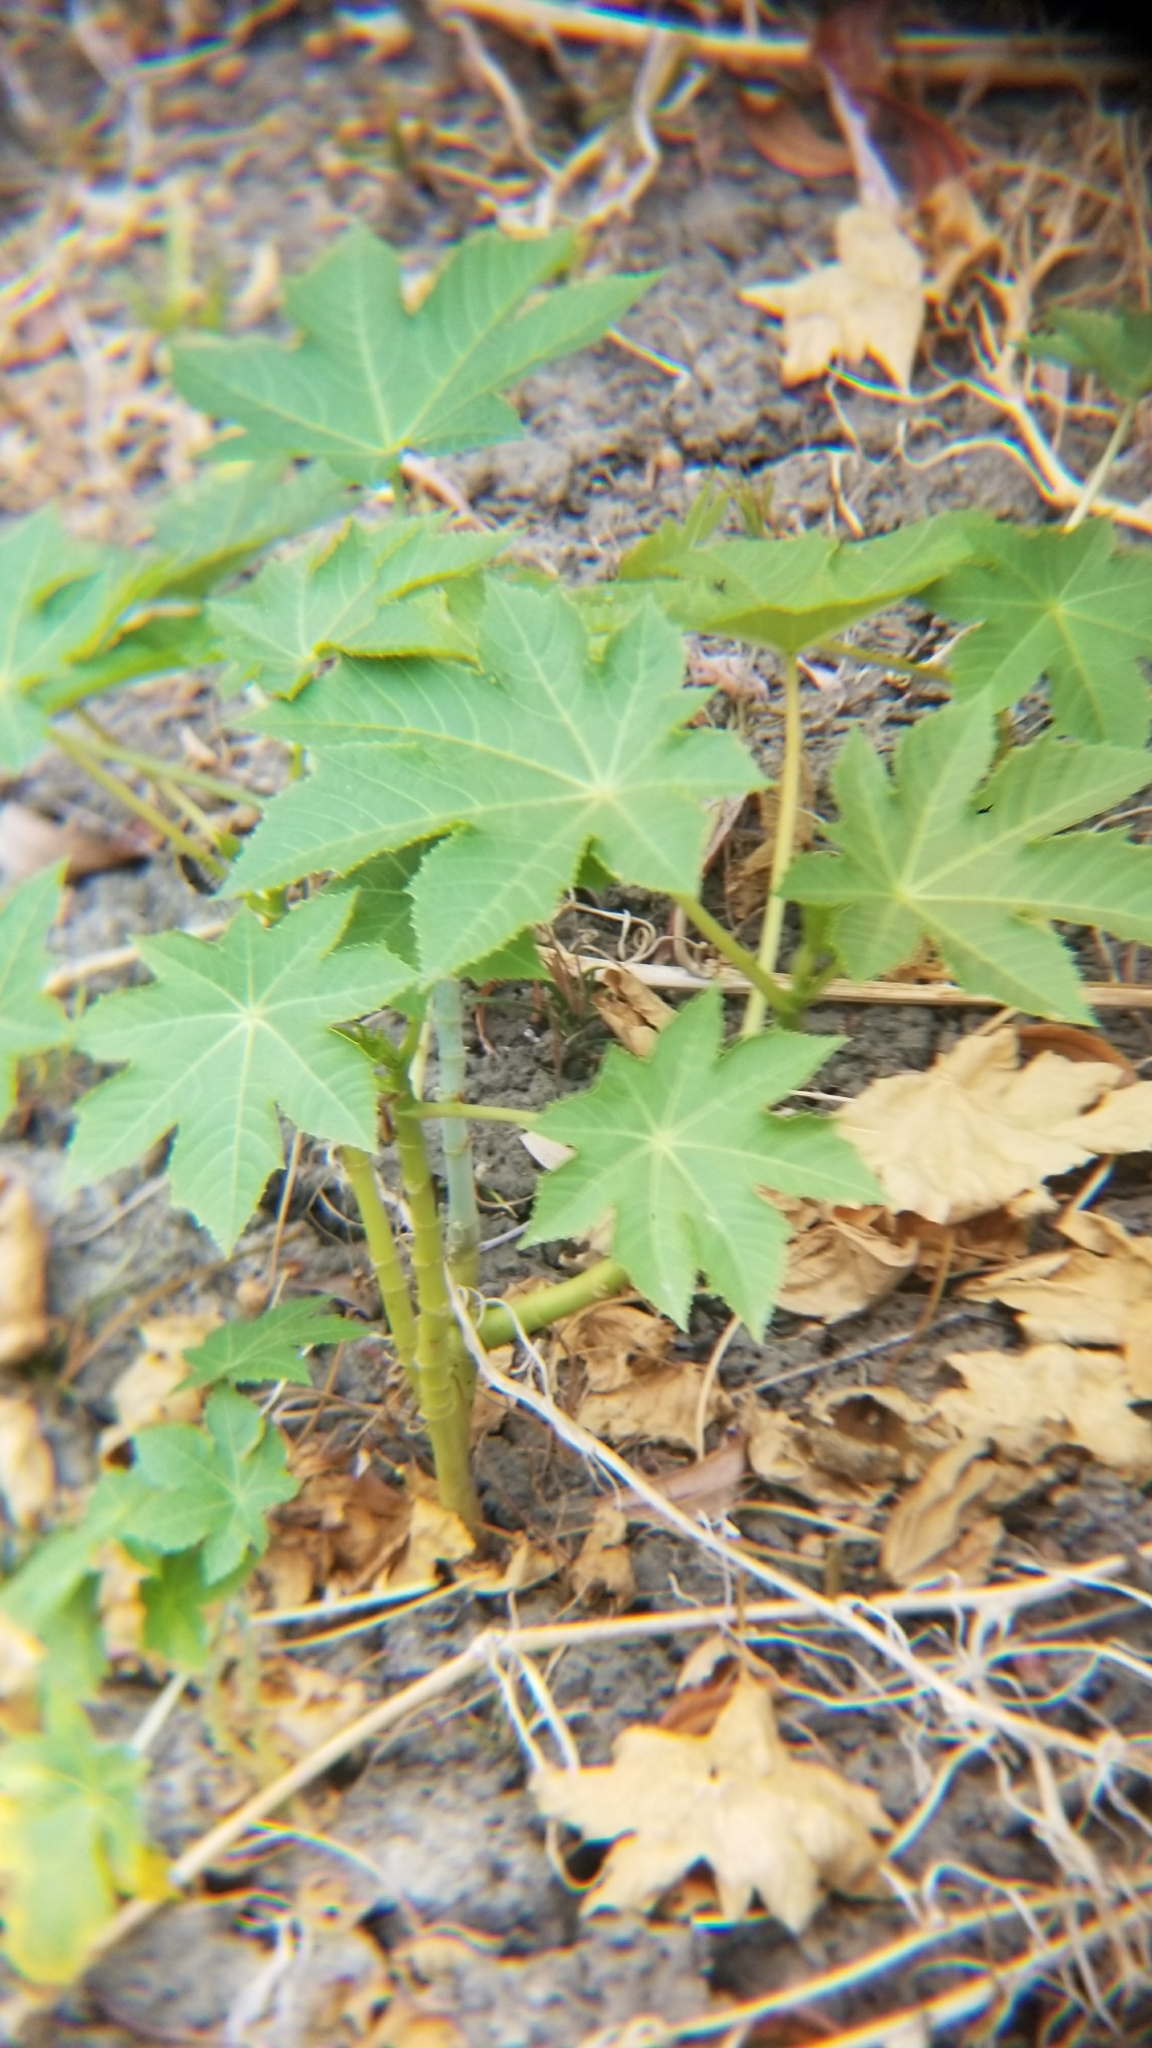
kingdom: Plantae
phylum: Tracheophyta
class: Magnoliopsida
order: Malpighiales
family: Euphorbiaceae
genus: Ricinus
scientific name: Ricinus communis
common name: Castor-oil-plant
